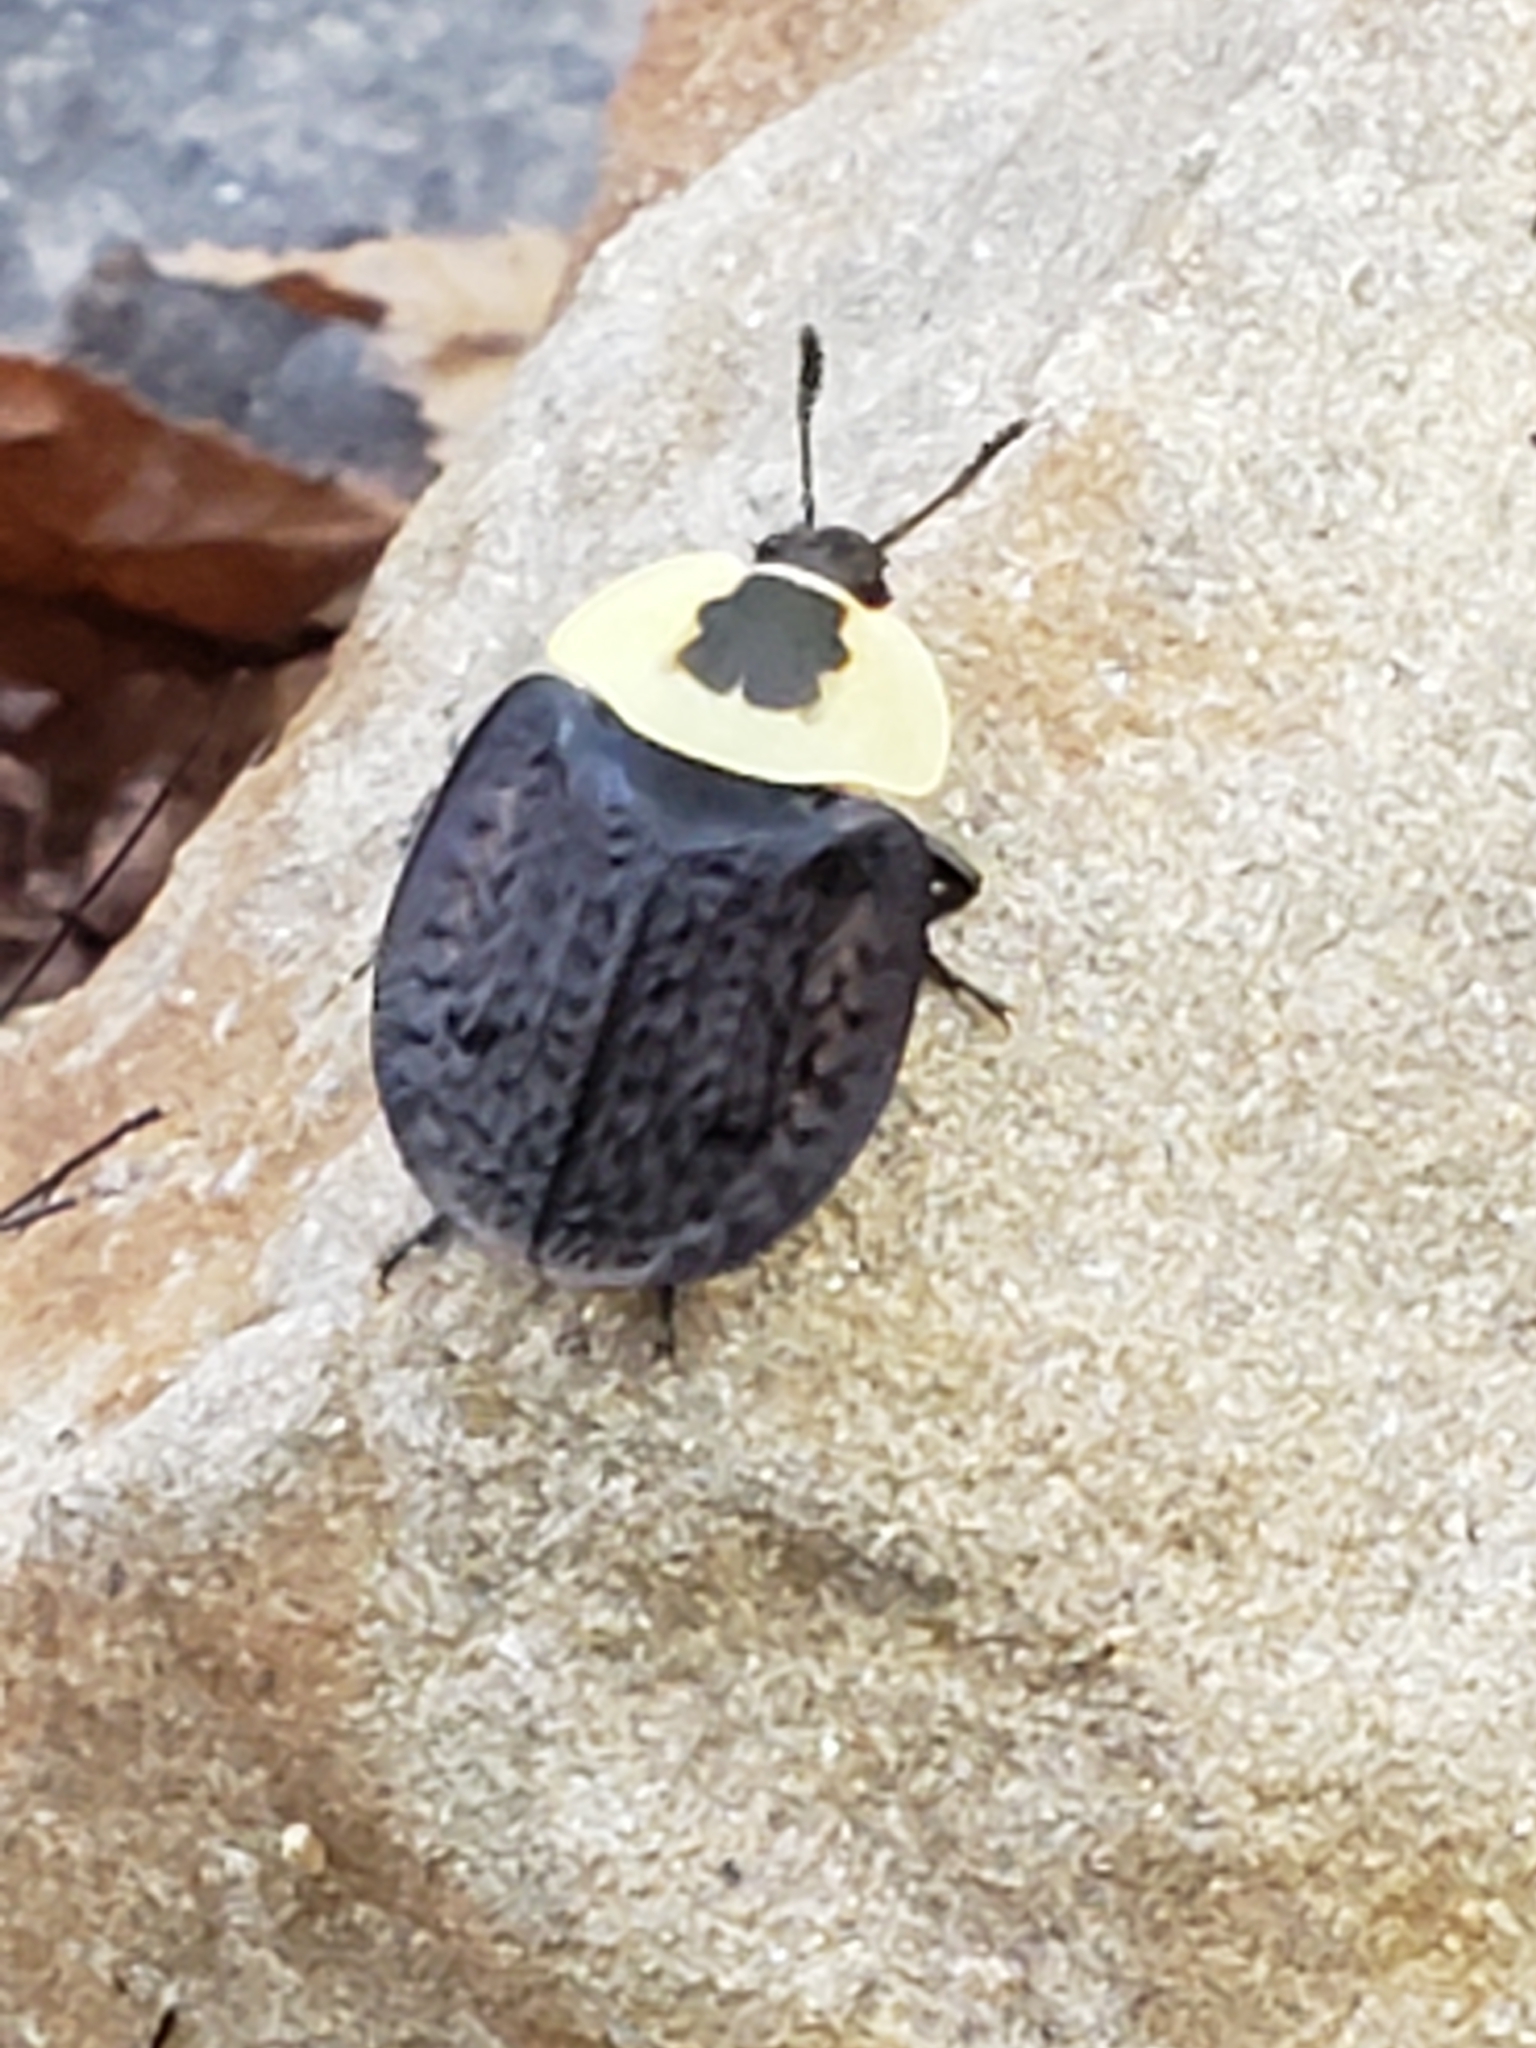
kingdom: Animalia
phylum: Arthropoda
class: Insecta
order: Coleoptera
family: Staphylinidae
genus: Necrophila
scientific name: Necrophila americana
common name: American carrion beetle
